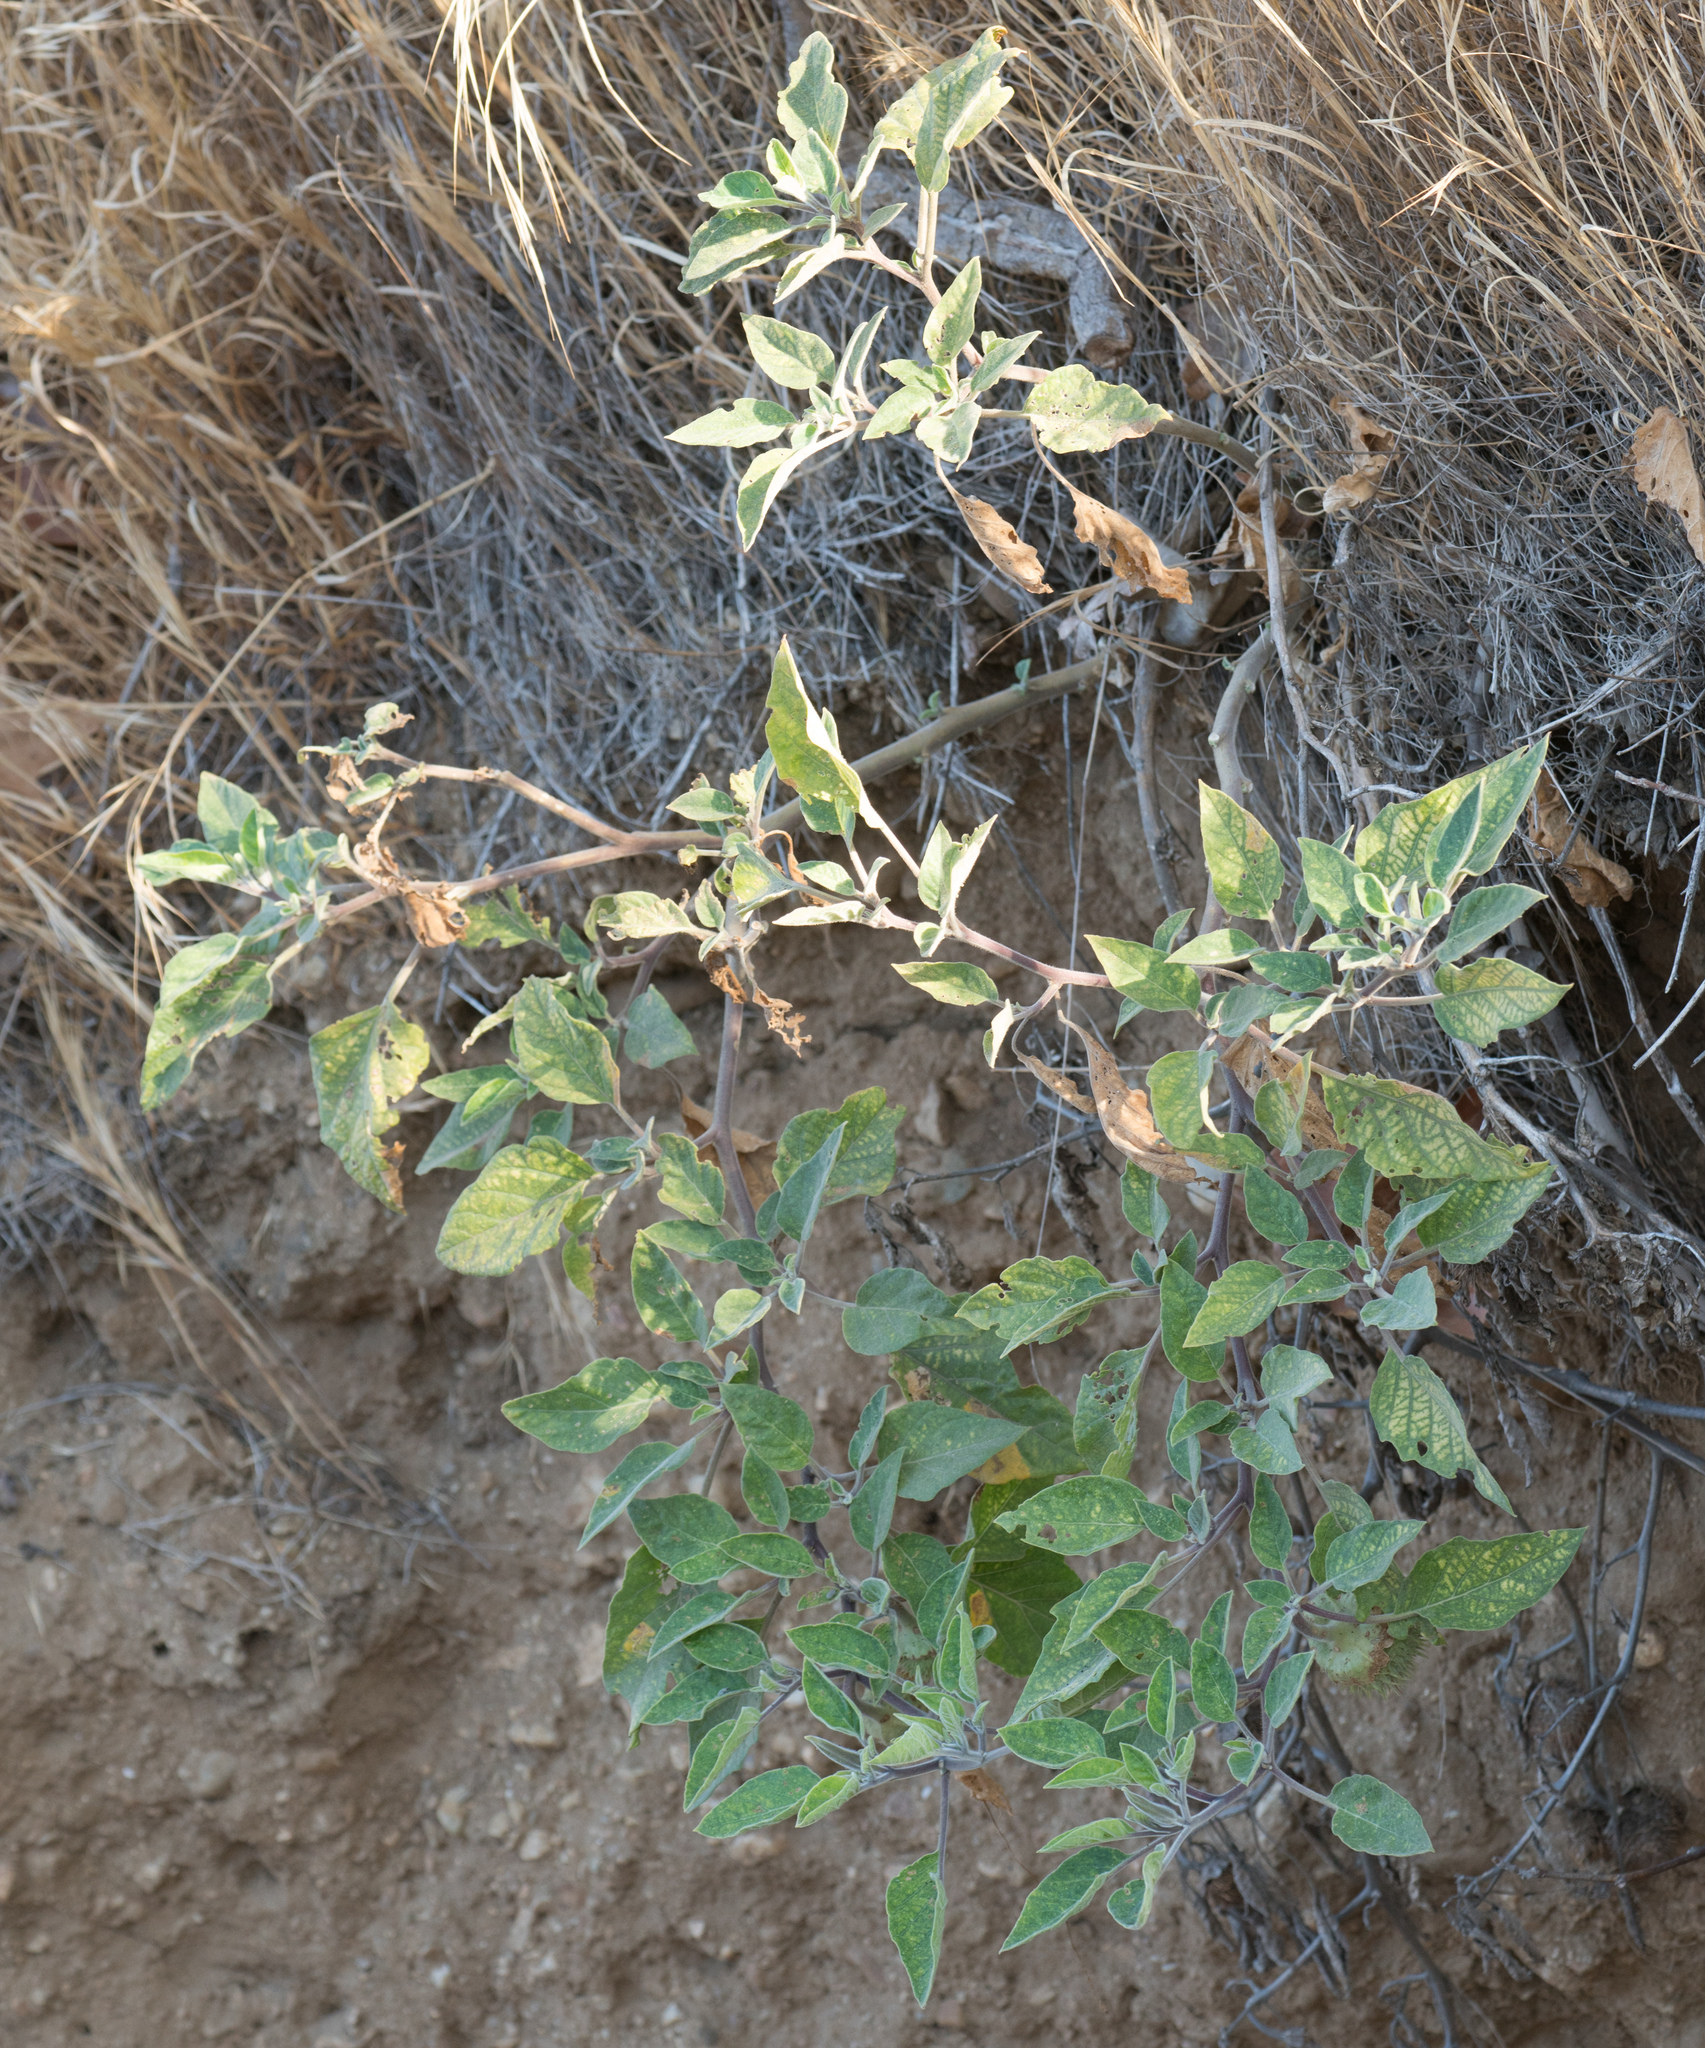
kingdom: Plantae
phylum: Tracheophyta
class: Magnoliopsida
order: Solanales
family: Solanaceae
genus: Datura
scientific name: Datura wrightii
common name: Sacred thorn-apple
